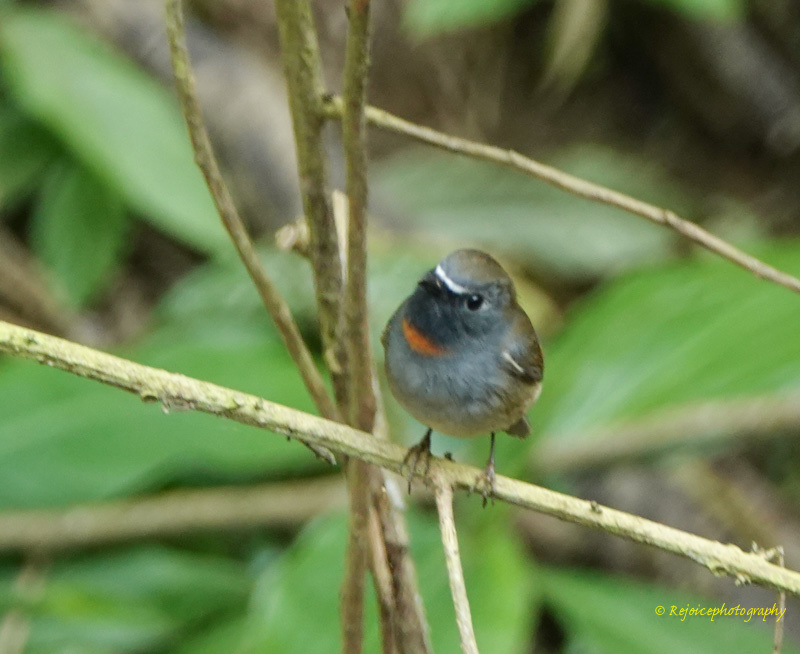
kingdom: Animalia
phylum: Chordata
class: Aves
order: Passeriformes
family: Muscicapidae
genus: Ficedula
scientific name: Ficedula strophiata
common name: Rufous-gorgeted flycatcher
